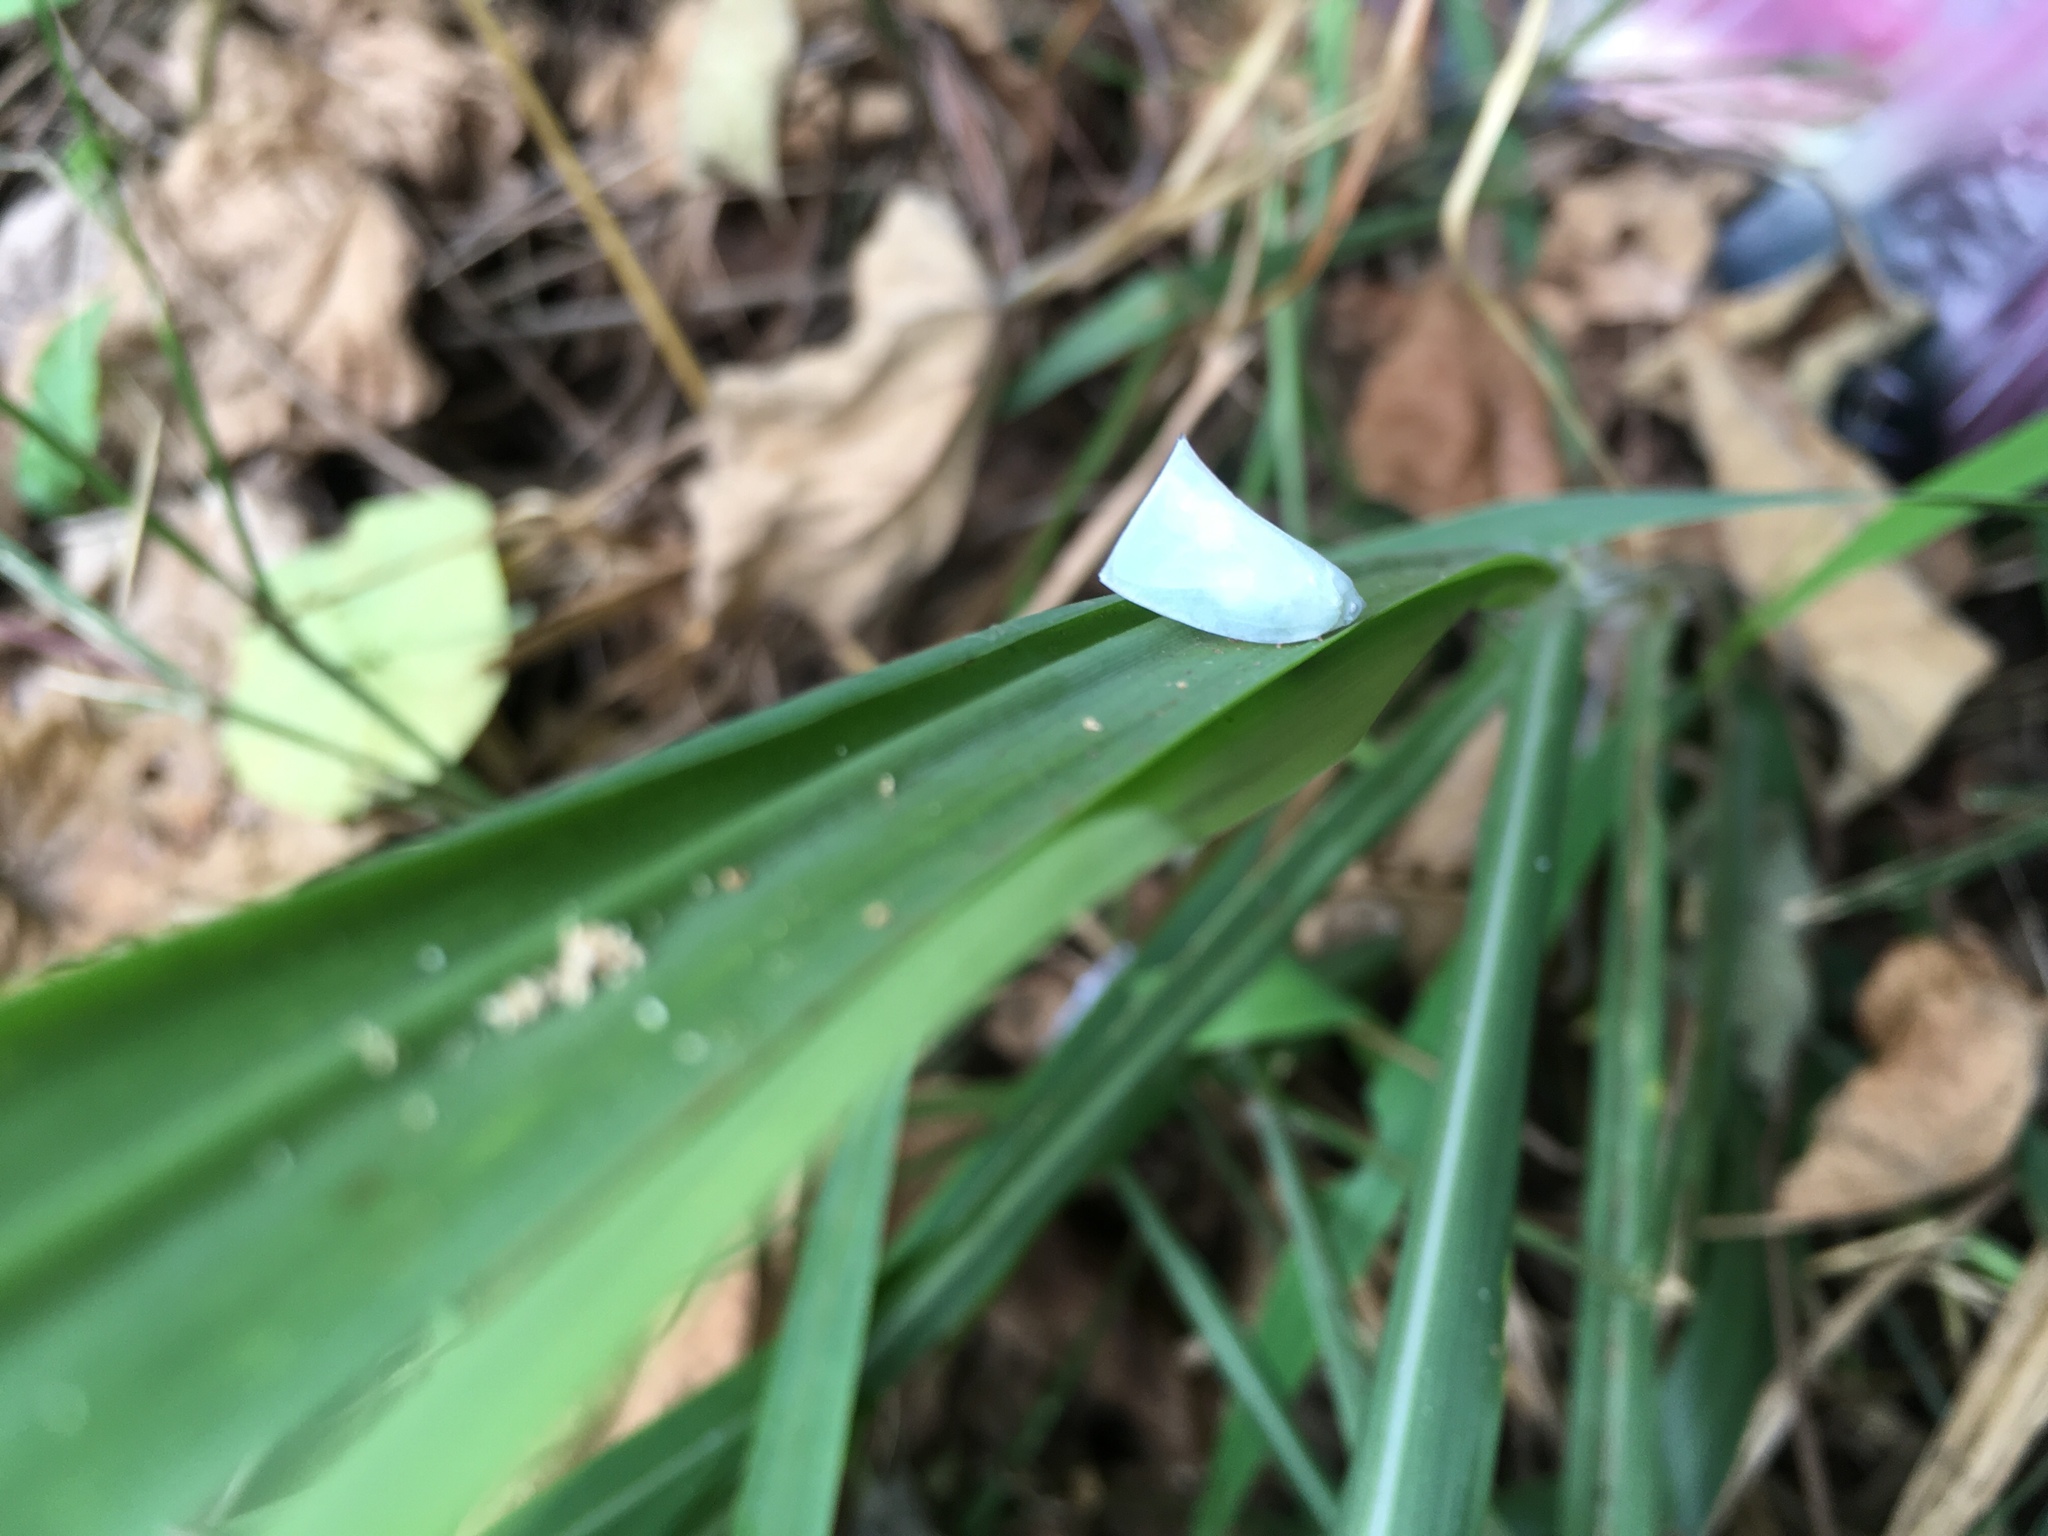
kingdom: Animalia
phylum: Arthropoda
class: Insecta
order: Hemiptera
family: Flatidae
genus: Phylliana
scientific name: Phylliana alba
